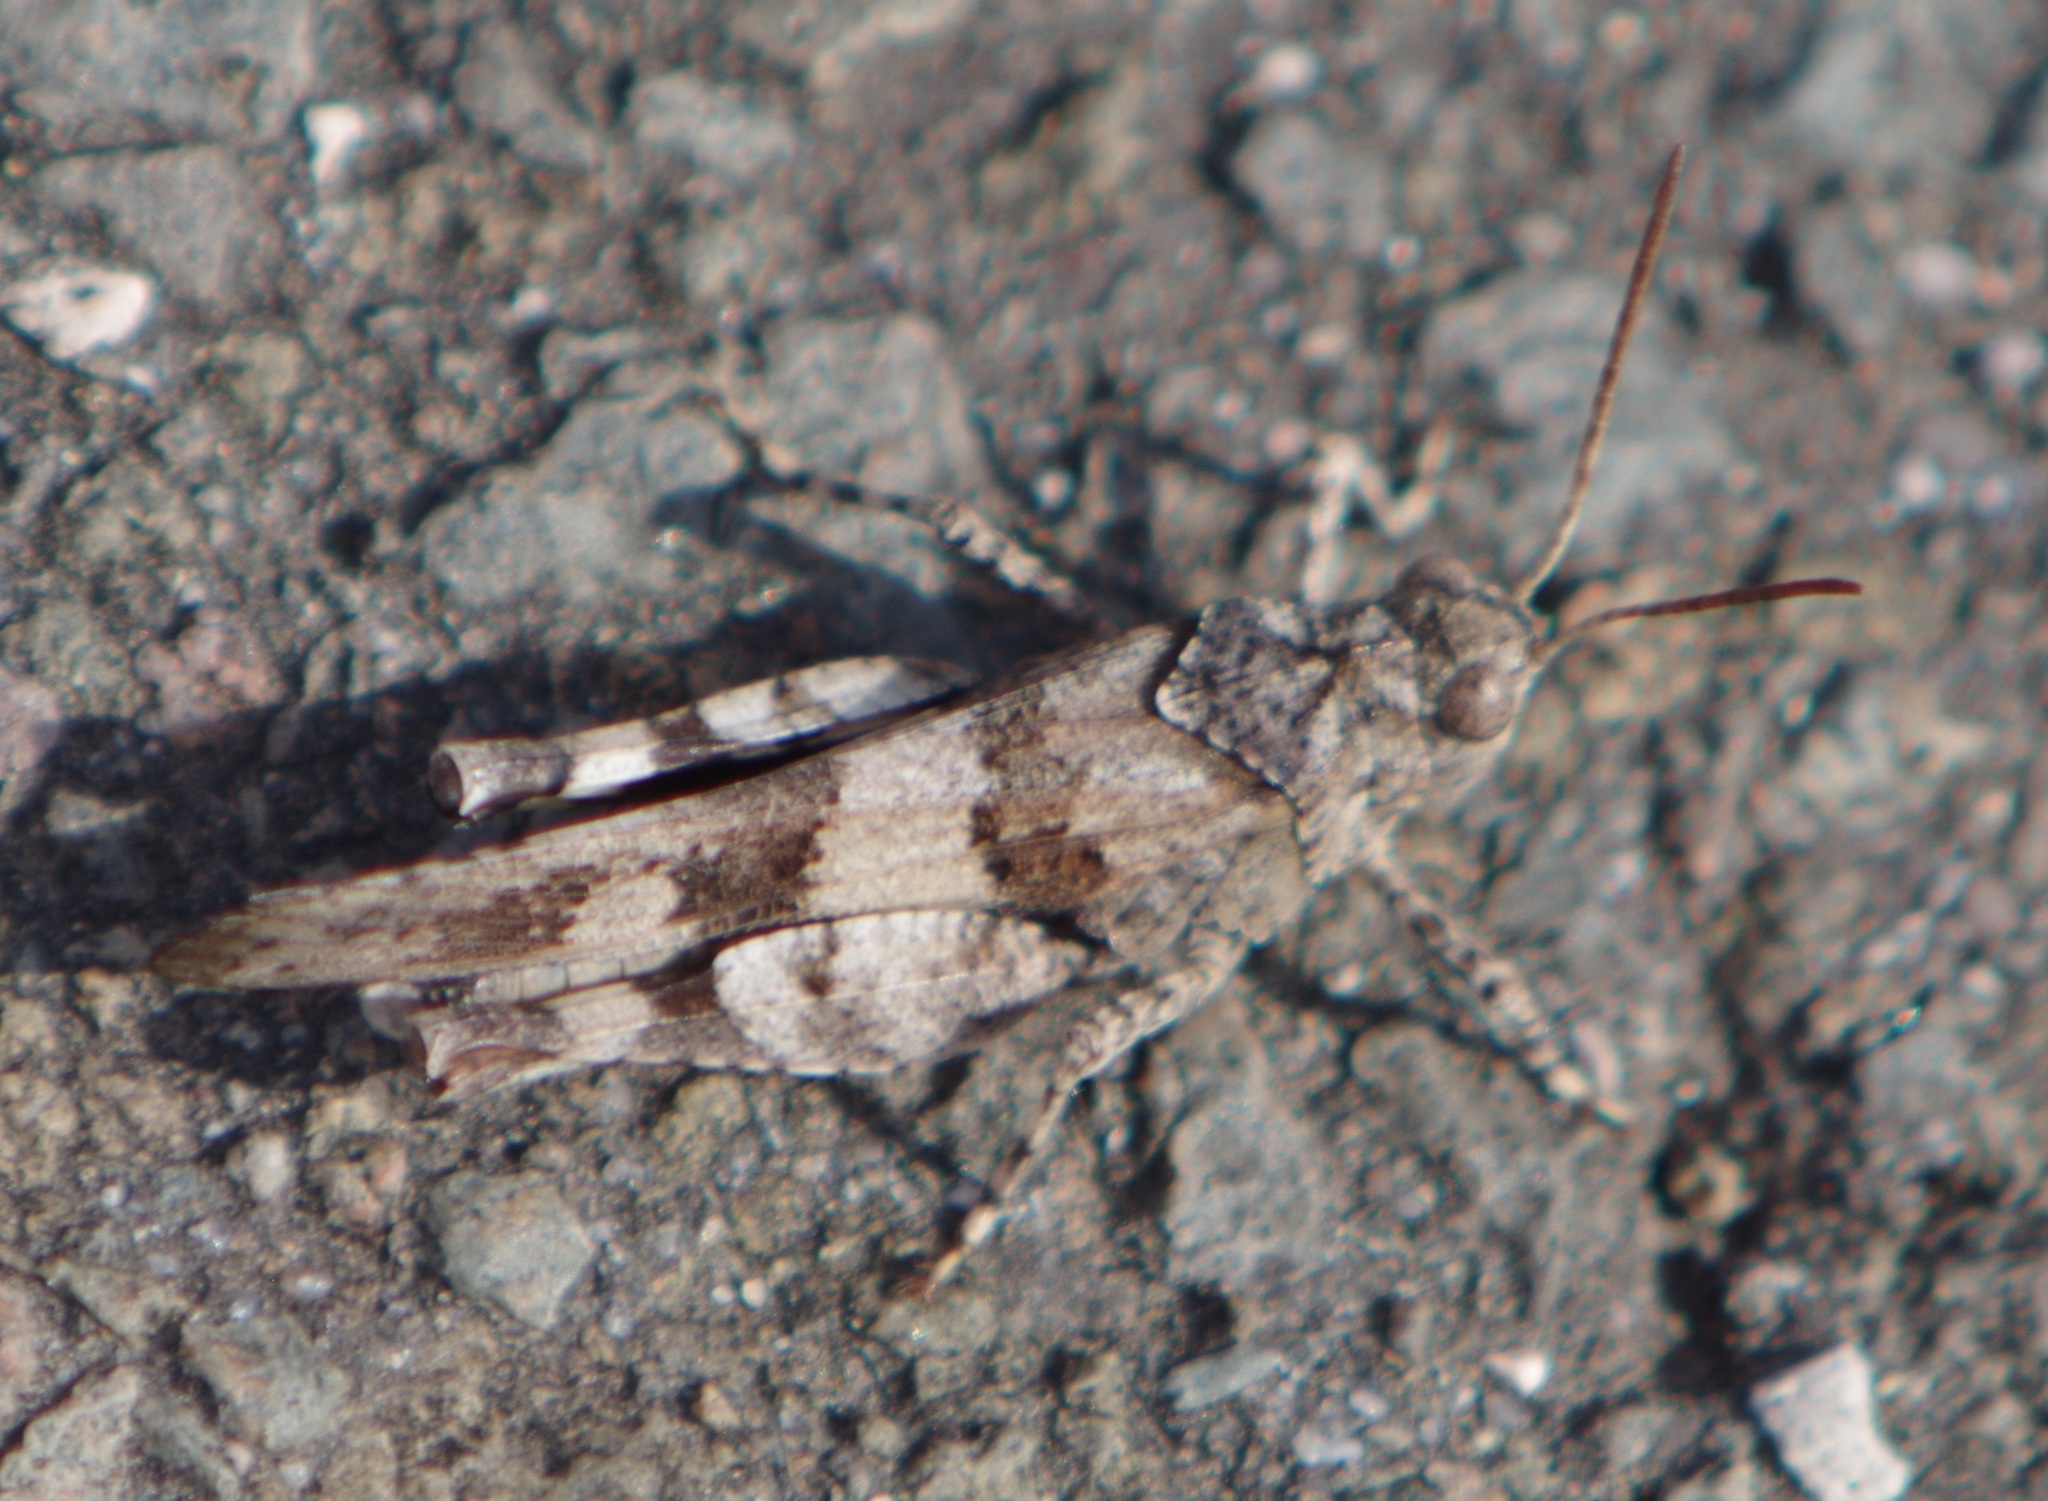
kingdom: Animalia
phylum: Arthropoda
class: Insecta
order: Orthoptera
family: Acrididae
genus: Oedipoda
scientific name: Oedipoda caerulescens
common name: Blue-winged grasshopper
